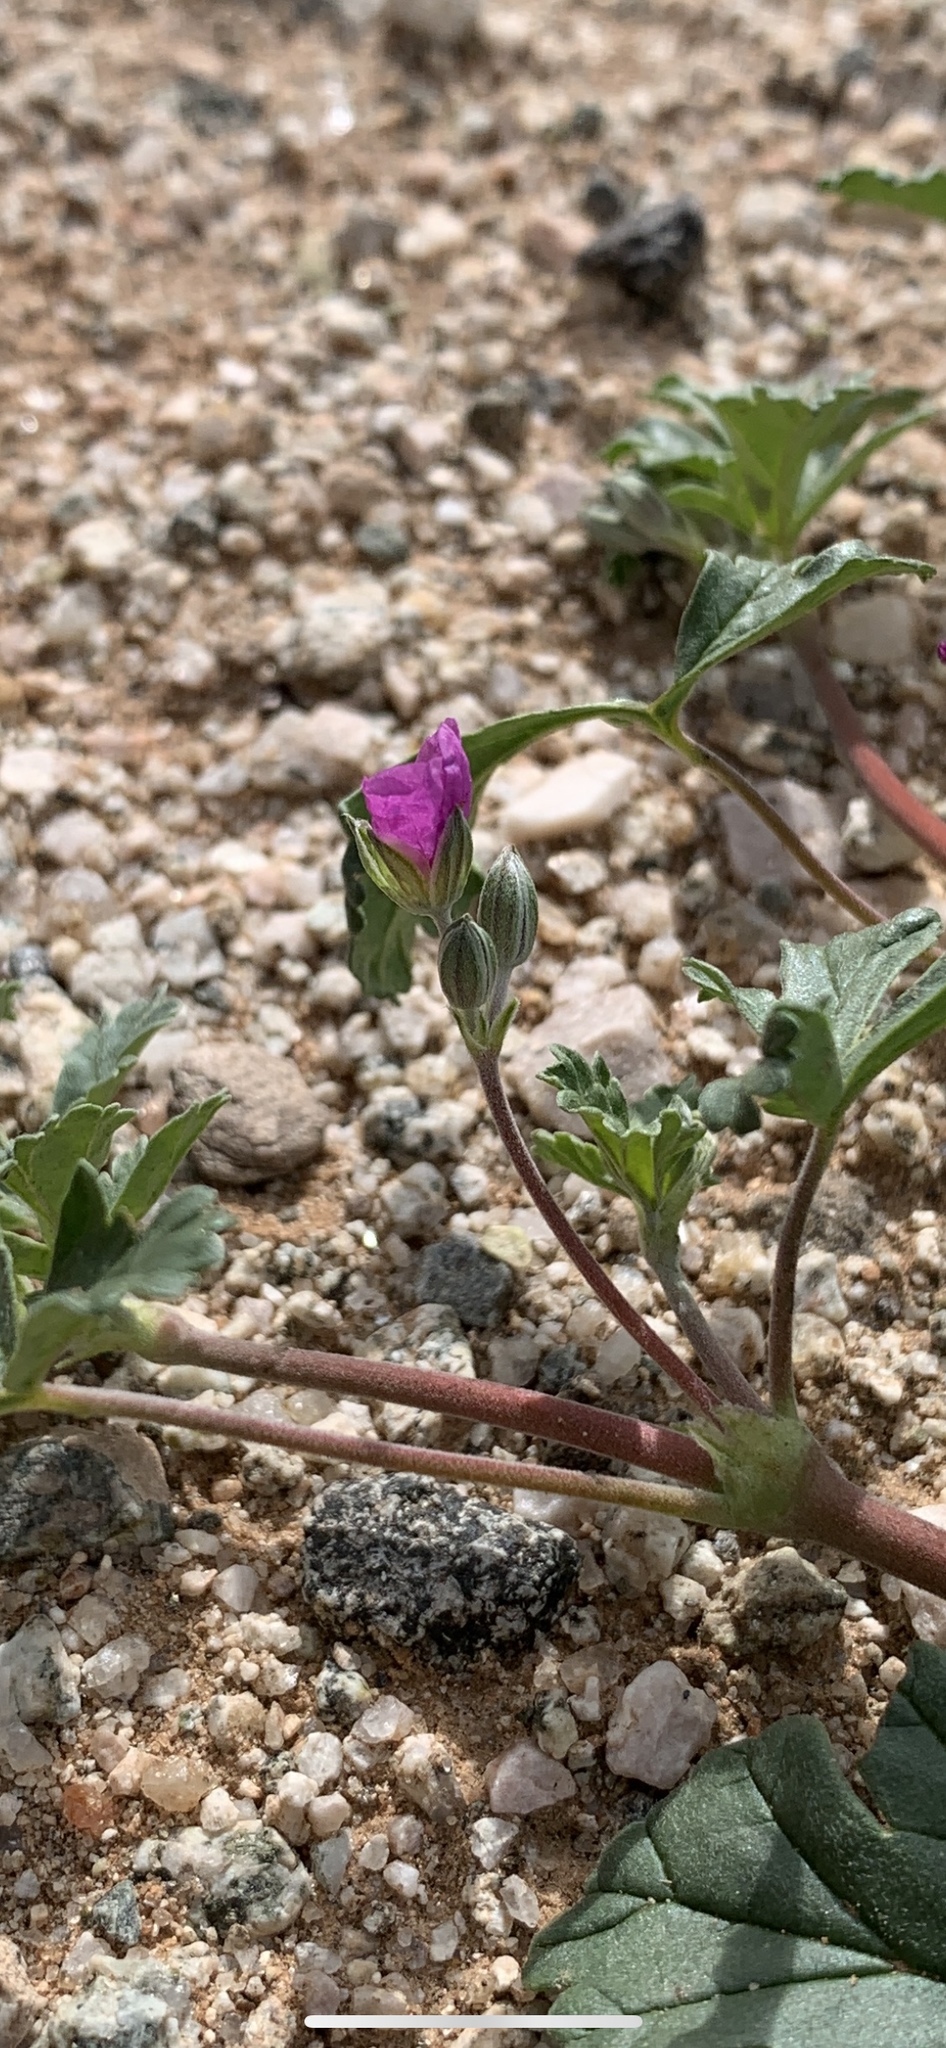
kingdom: Plantae
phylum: Tracheophyta
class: Magnoliopsida
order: Geraniales
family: Geraniaceae
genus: Erodium
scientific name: Erodium texanum
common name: Texas stork's-bill
